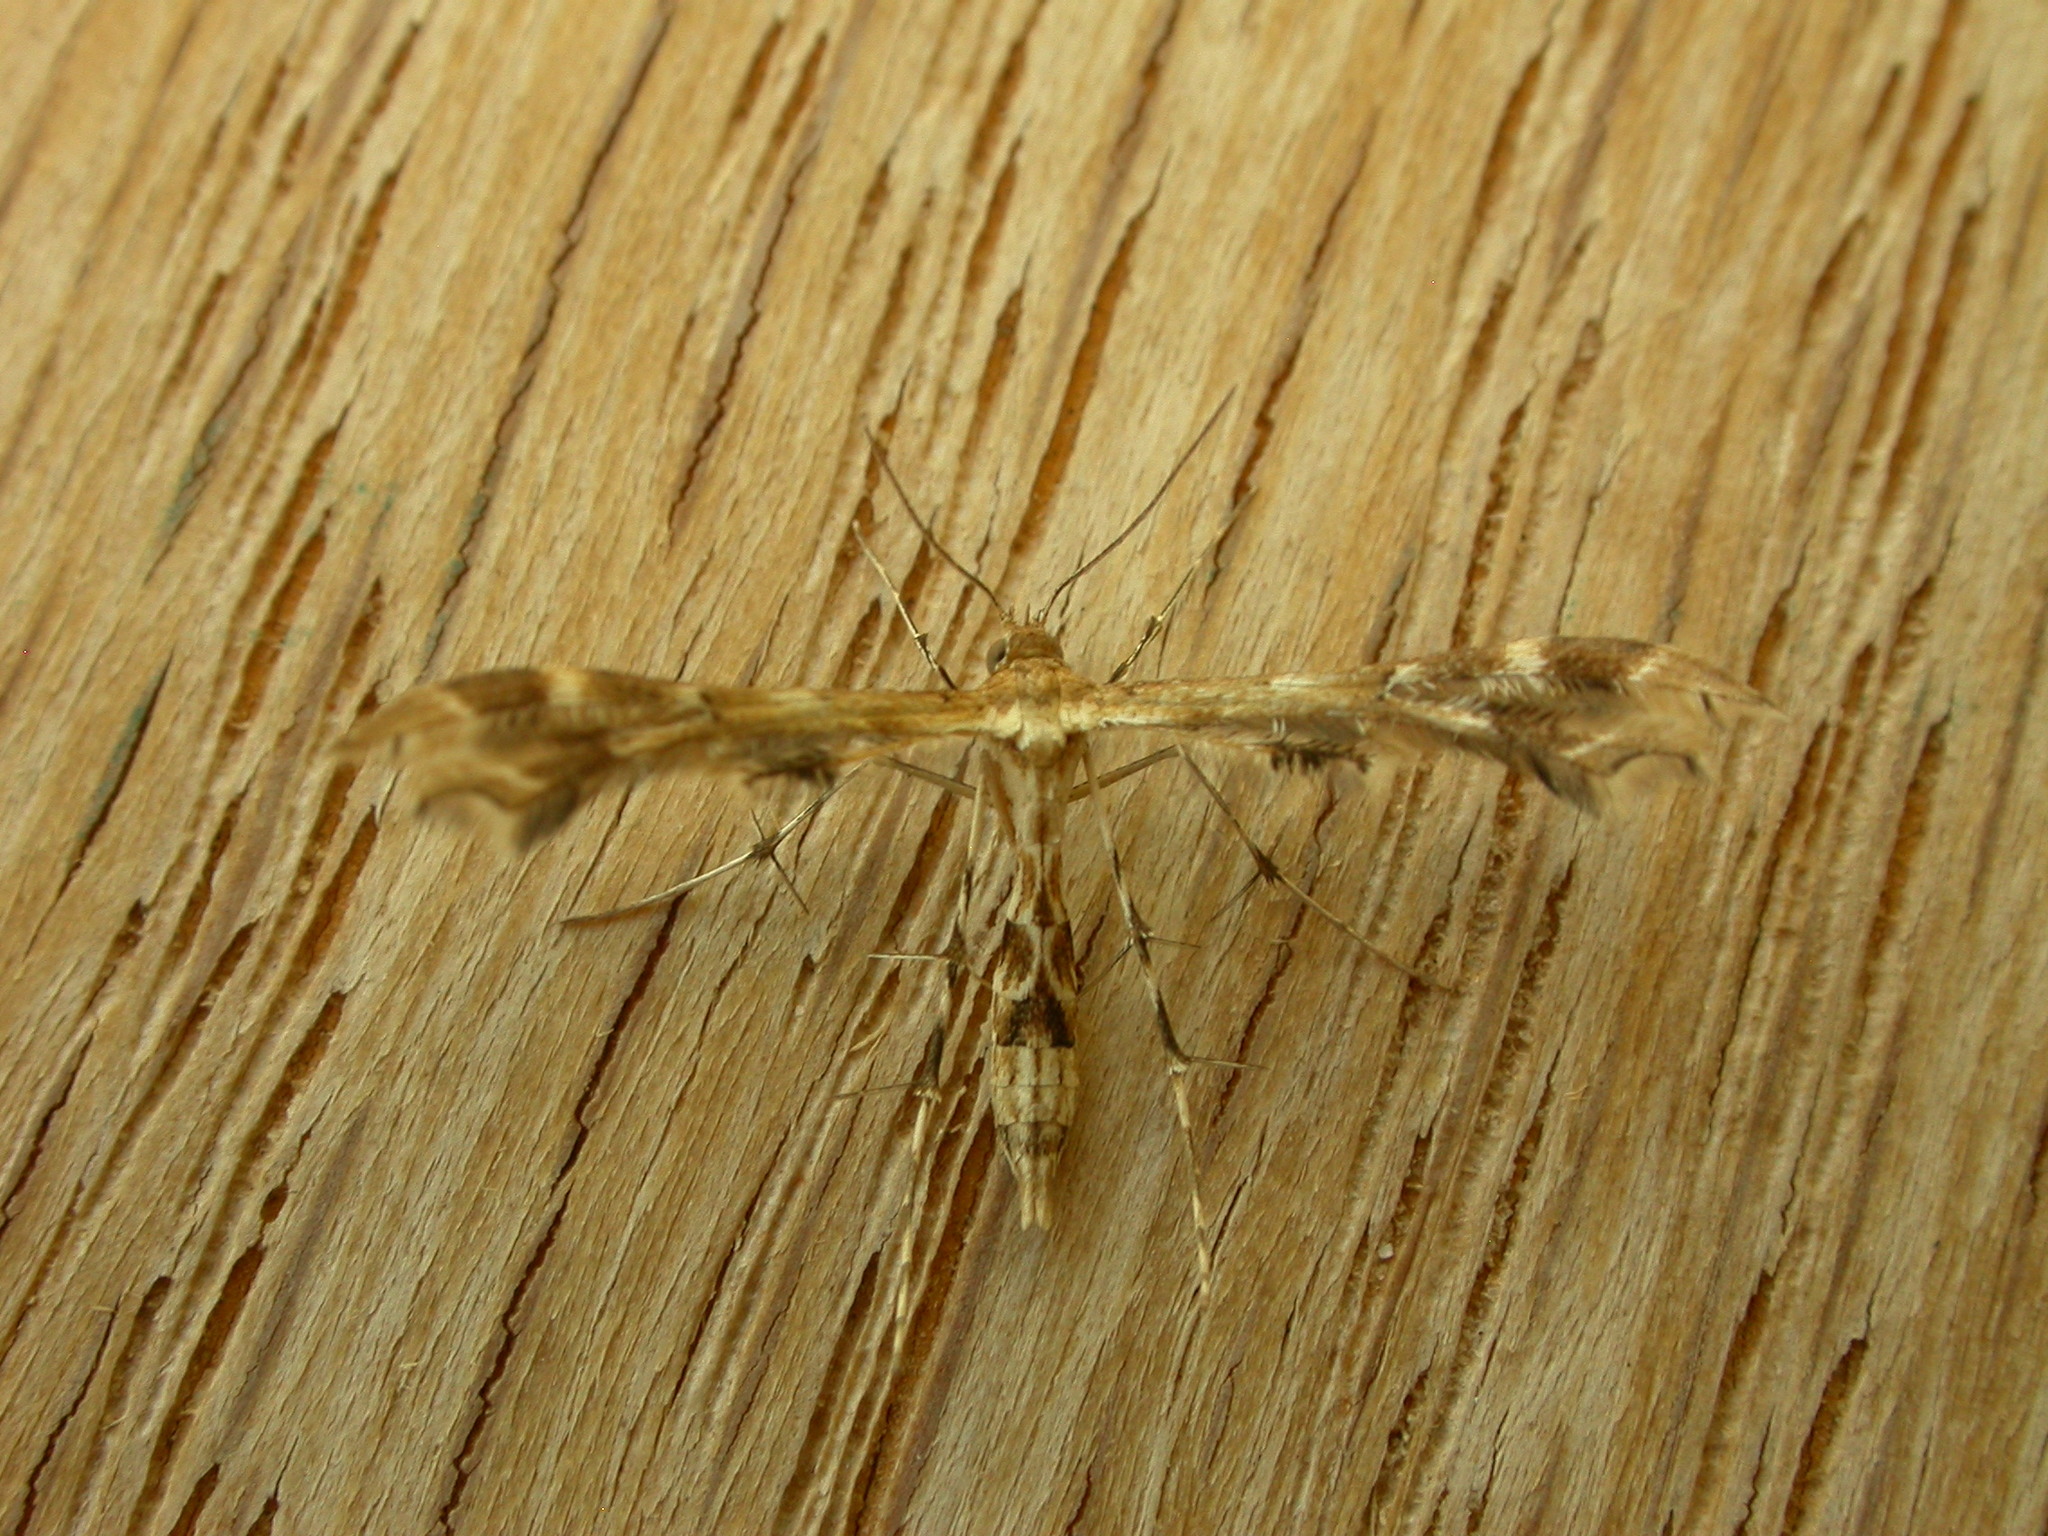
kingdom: Animalia
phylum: Arthropoda
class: Insecta
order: Lepidoptera
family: Pterophoridae
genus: Sphenarches
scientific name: Sphenarches anisodactylus
